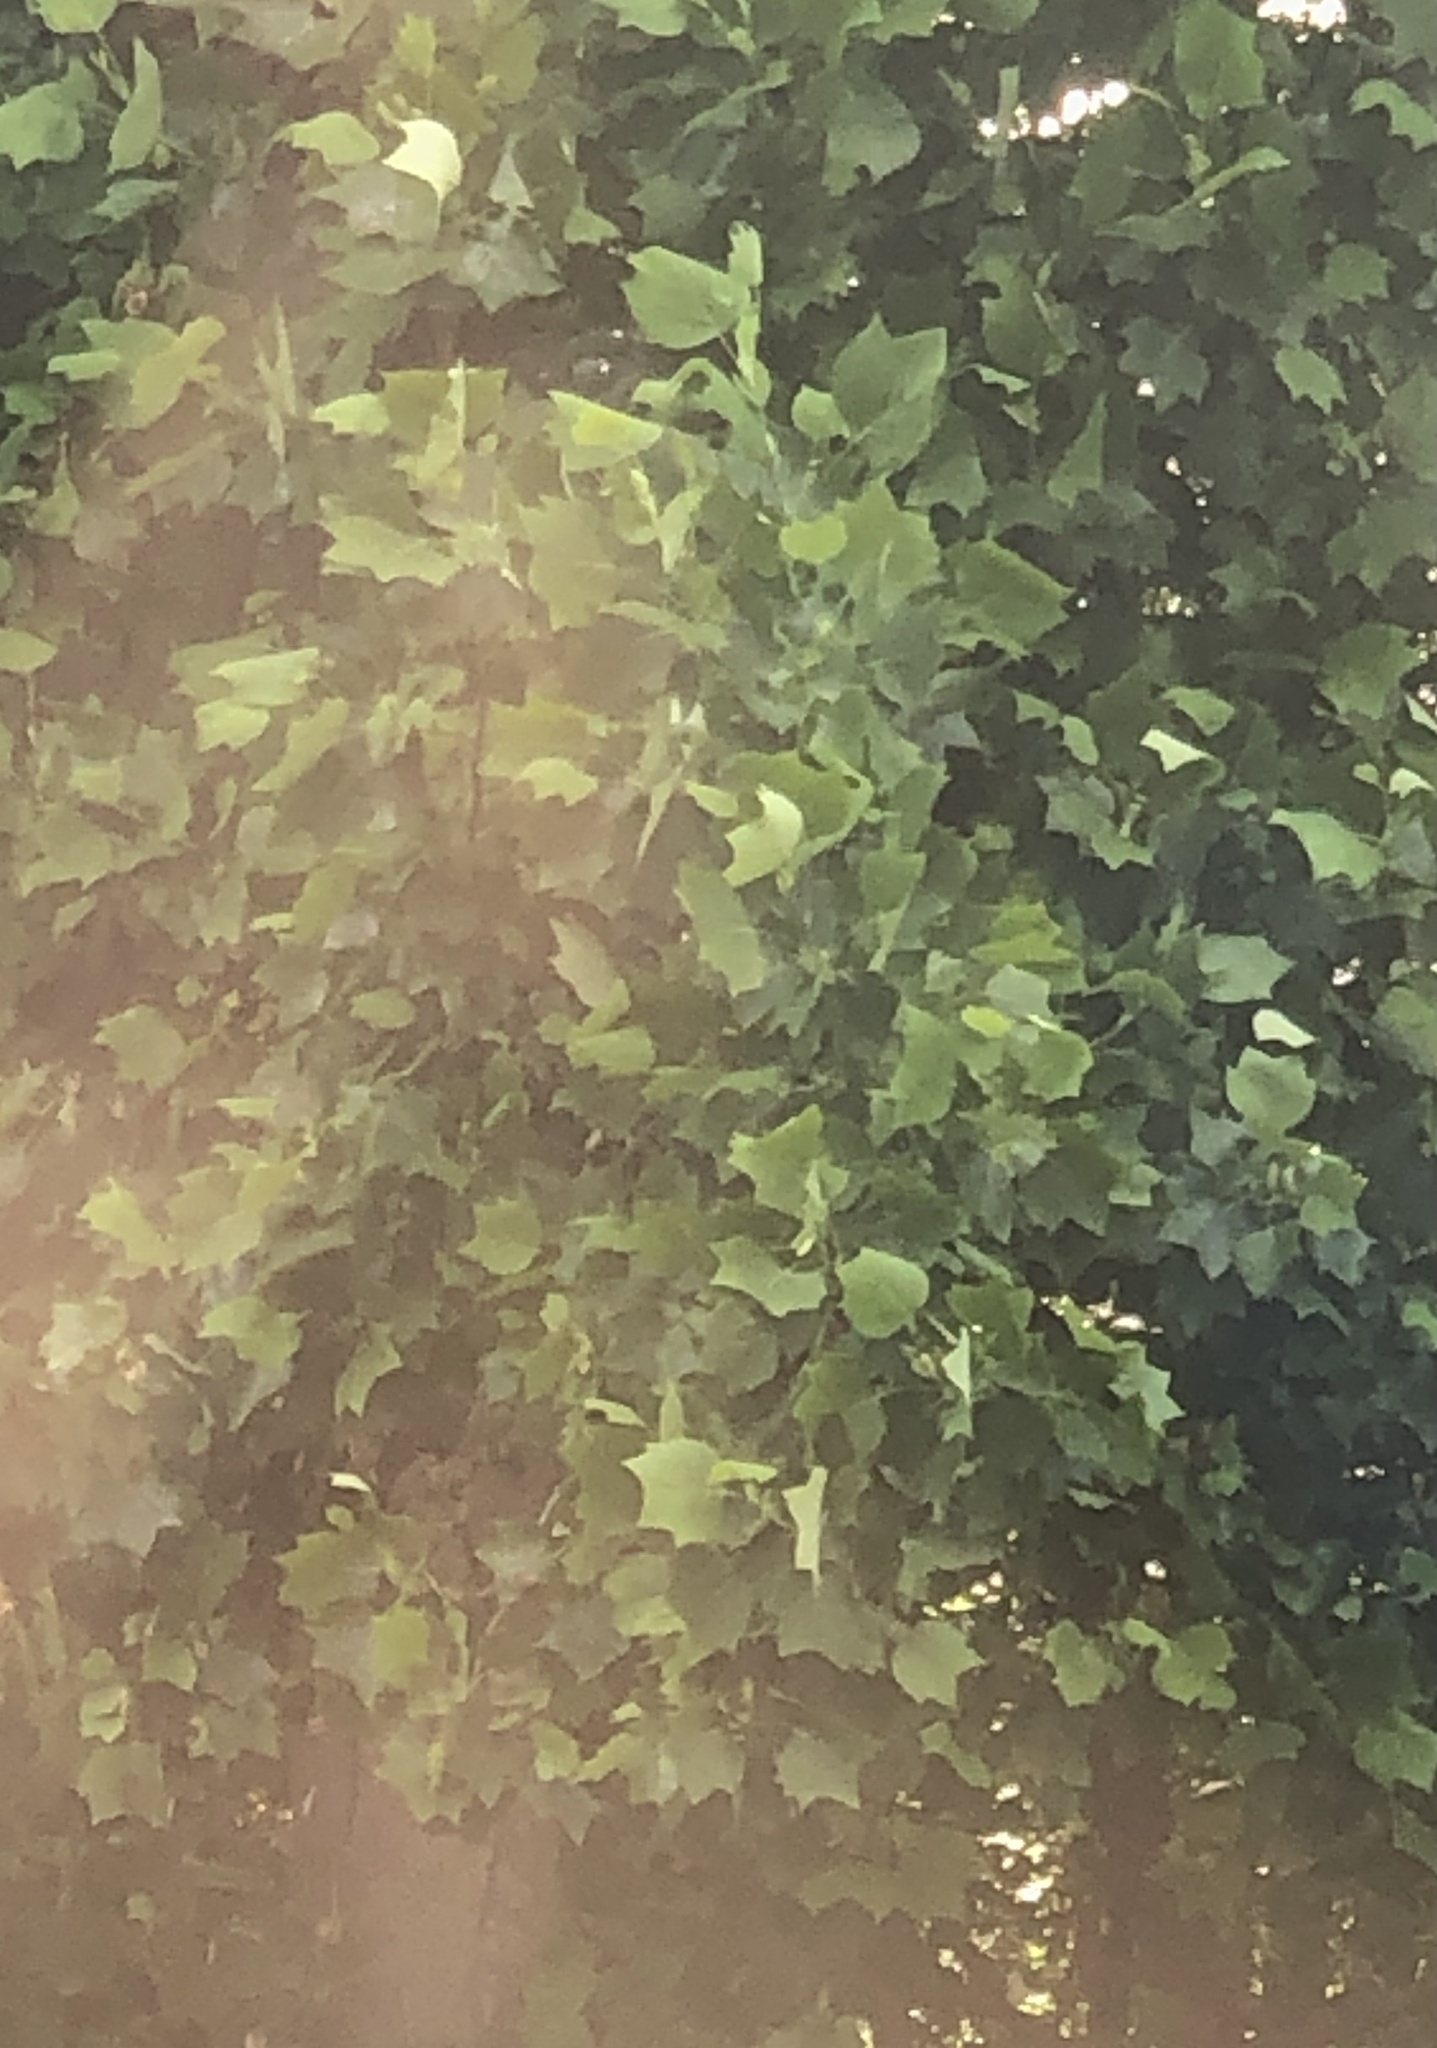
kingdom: Plantae
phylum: Tracheophyta
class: Magnoliopsida
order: Magnoliales
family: Magnoliaceae
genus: Liriodendron
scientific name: Liriodendron tulipifera
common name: Tulip tree
